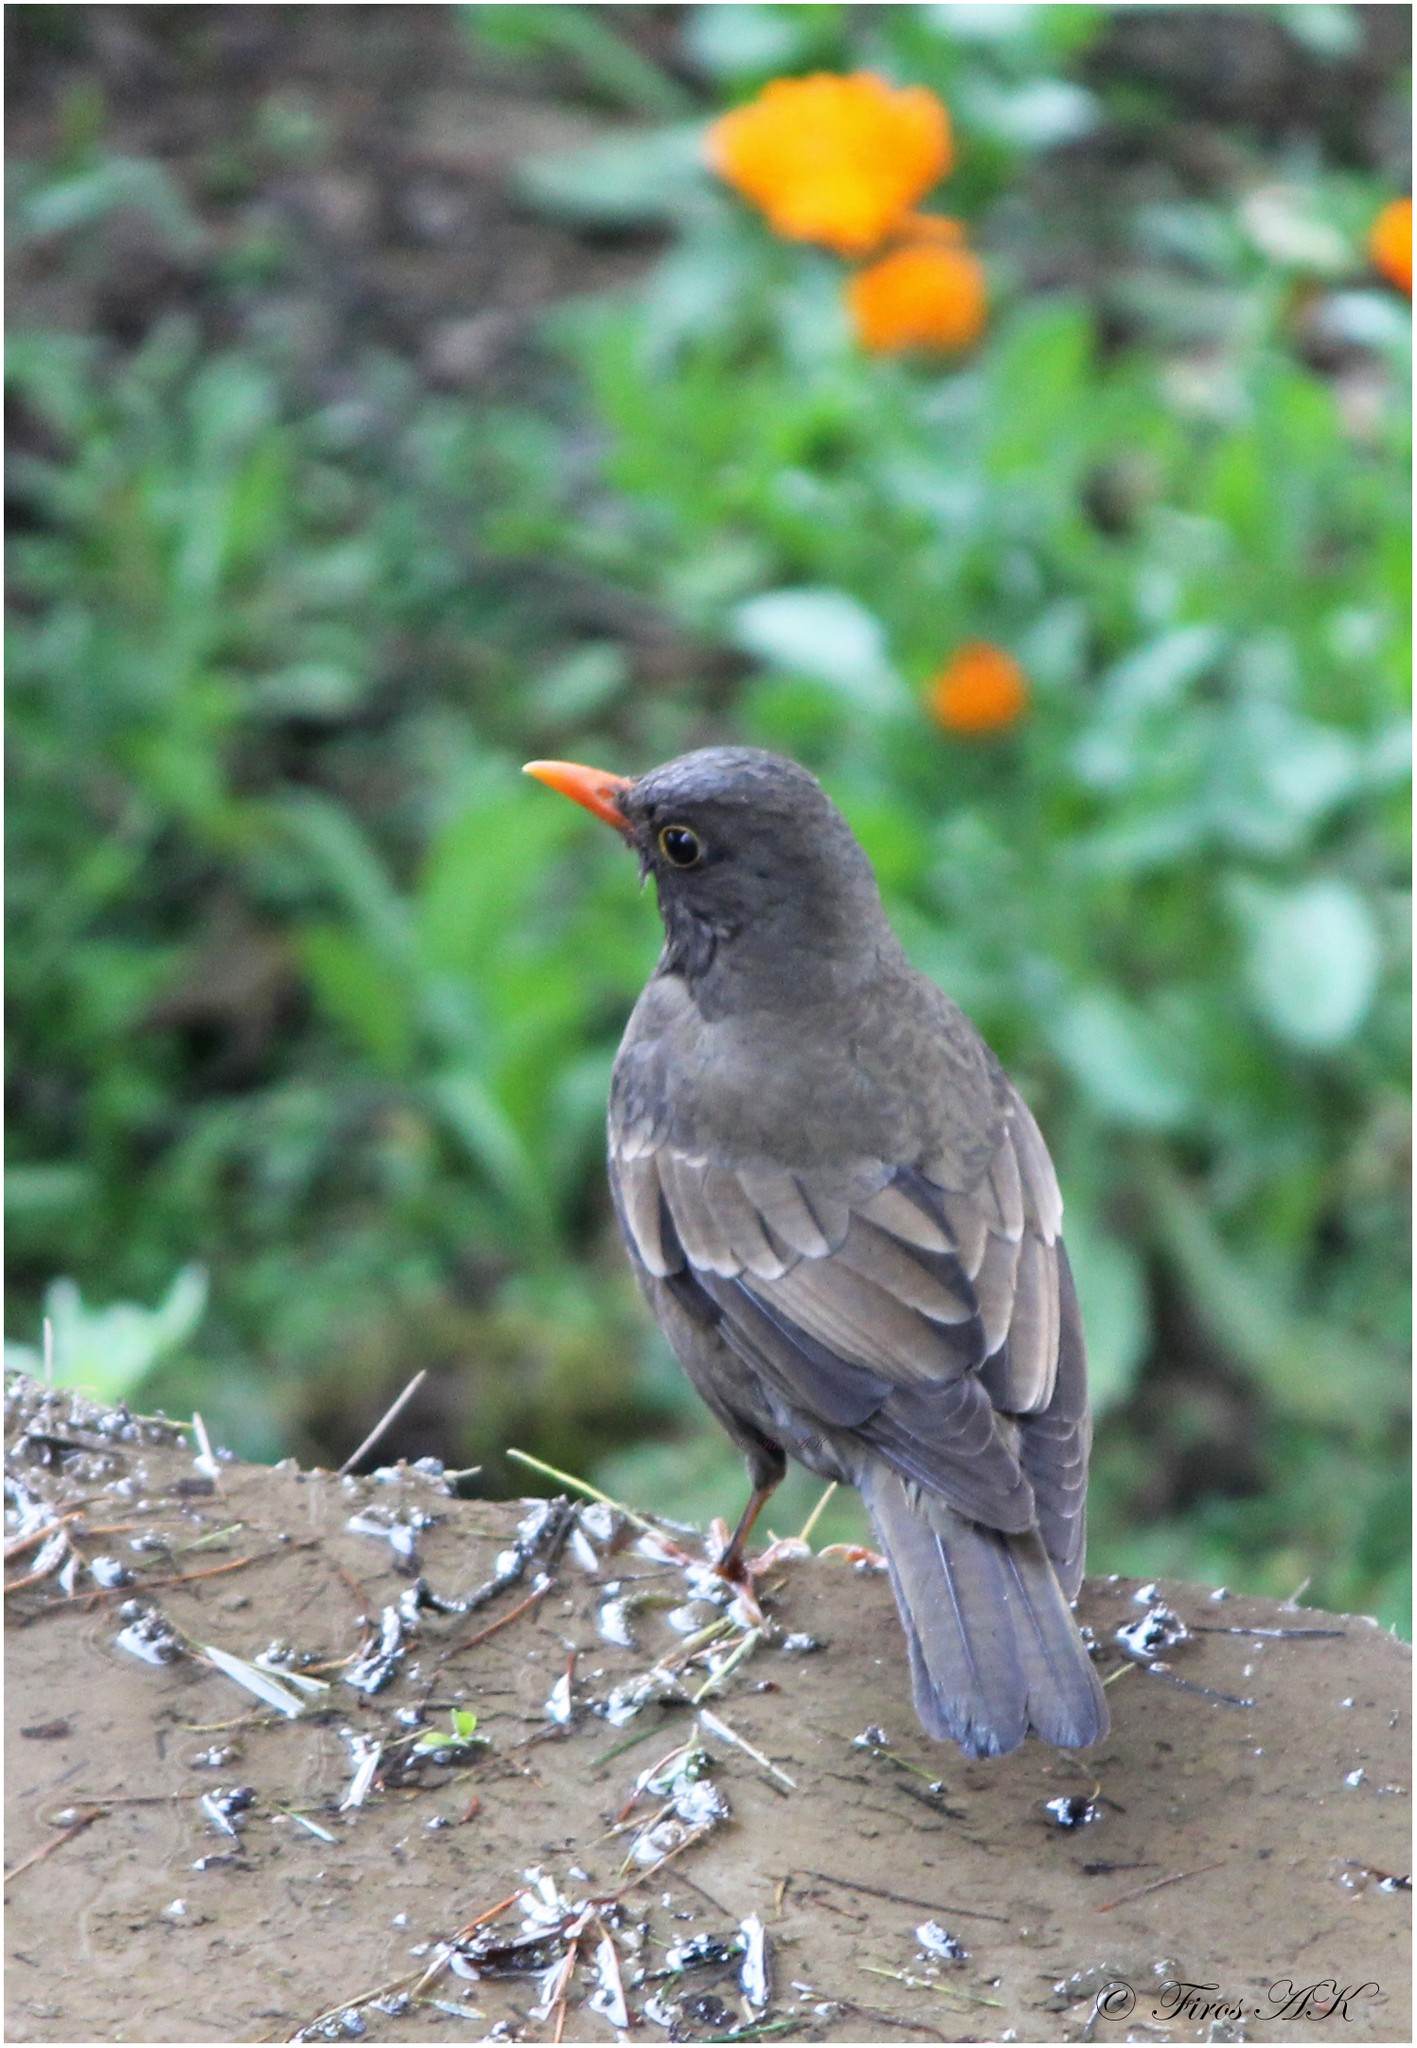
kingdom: Animalia
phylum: Chordata
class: Aves
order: Passeriformes
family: Turdidae
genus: Turdus
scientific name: Turdus boulboul
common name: Grey-winged blackbird
